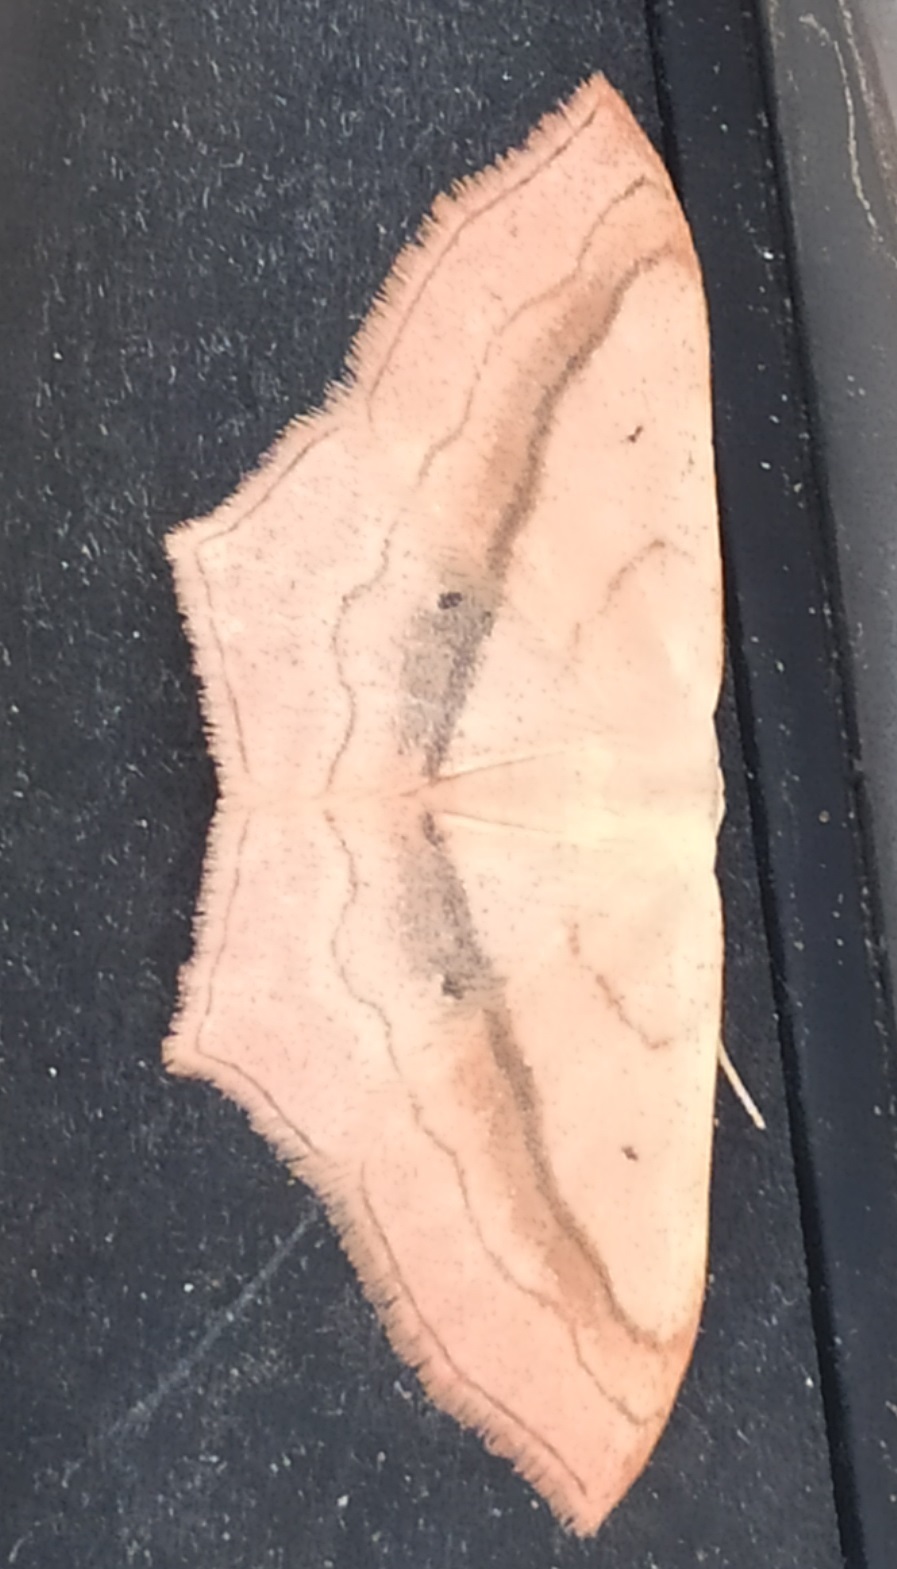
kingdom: Animalia
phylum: Arthropoda
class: Insecta
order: Lepidoptera
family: Geometridae
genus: Scopula
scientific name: Scopula imitaria
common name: Small blood-vein
